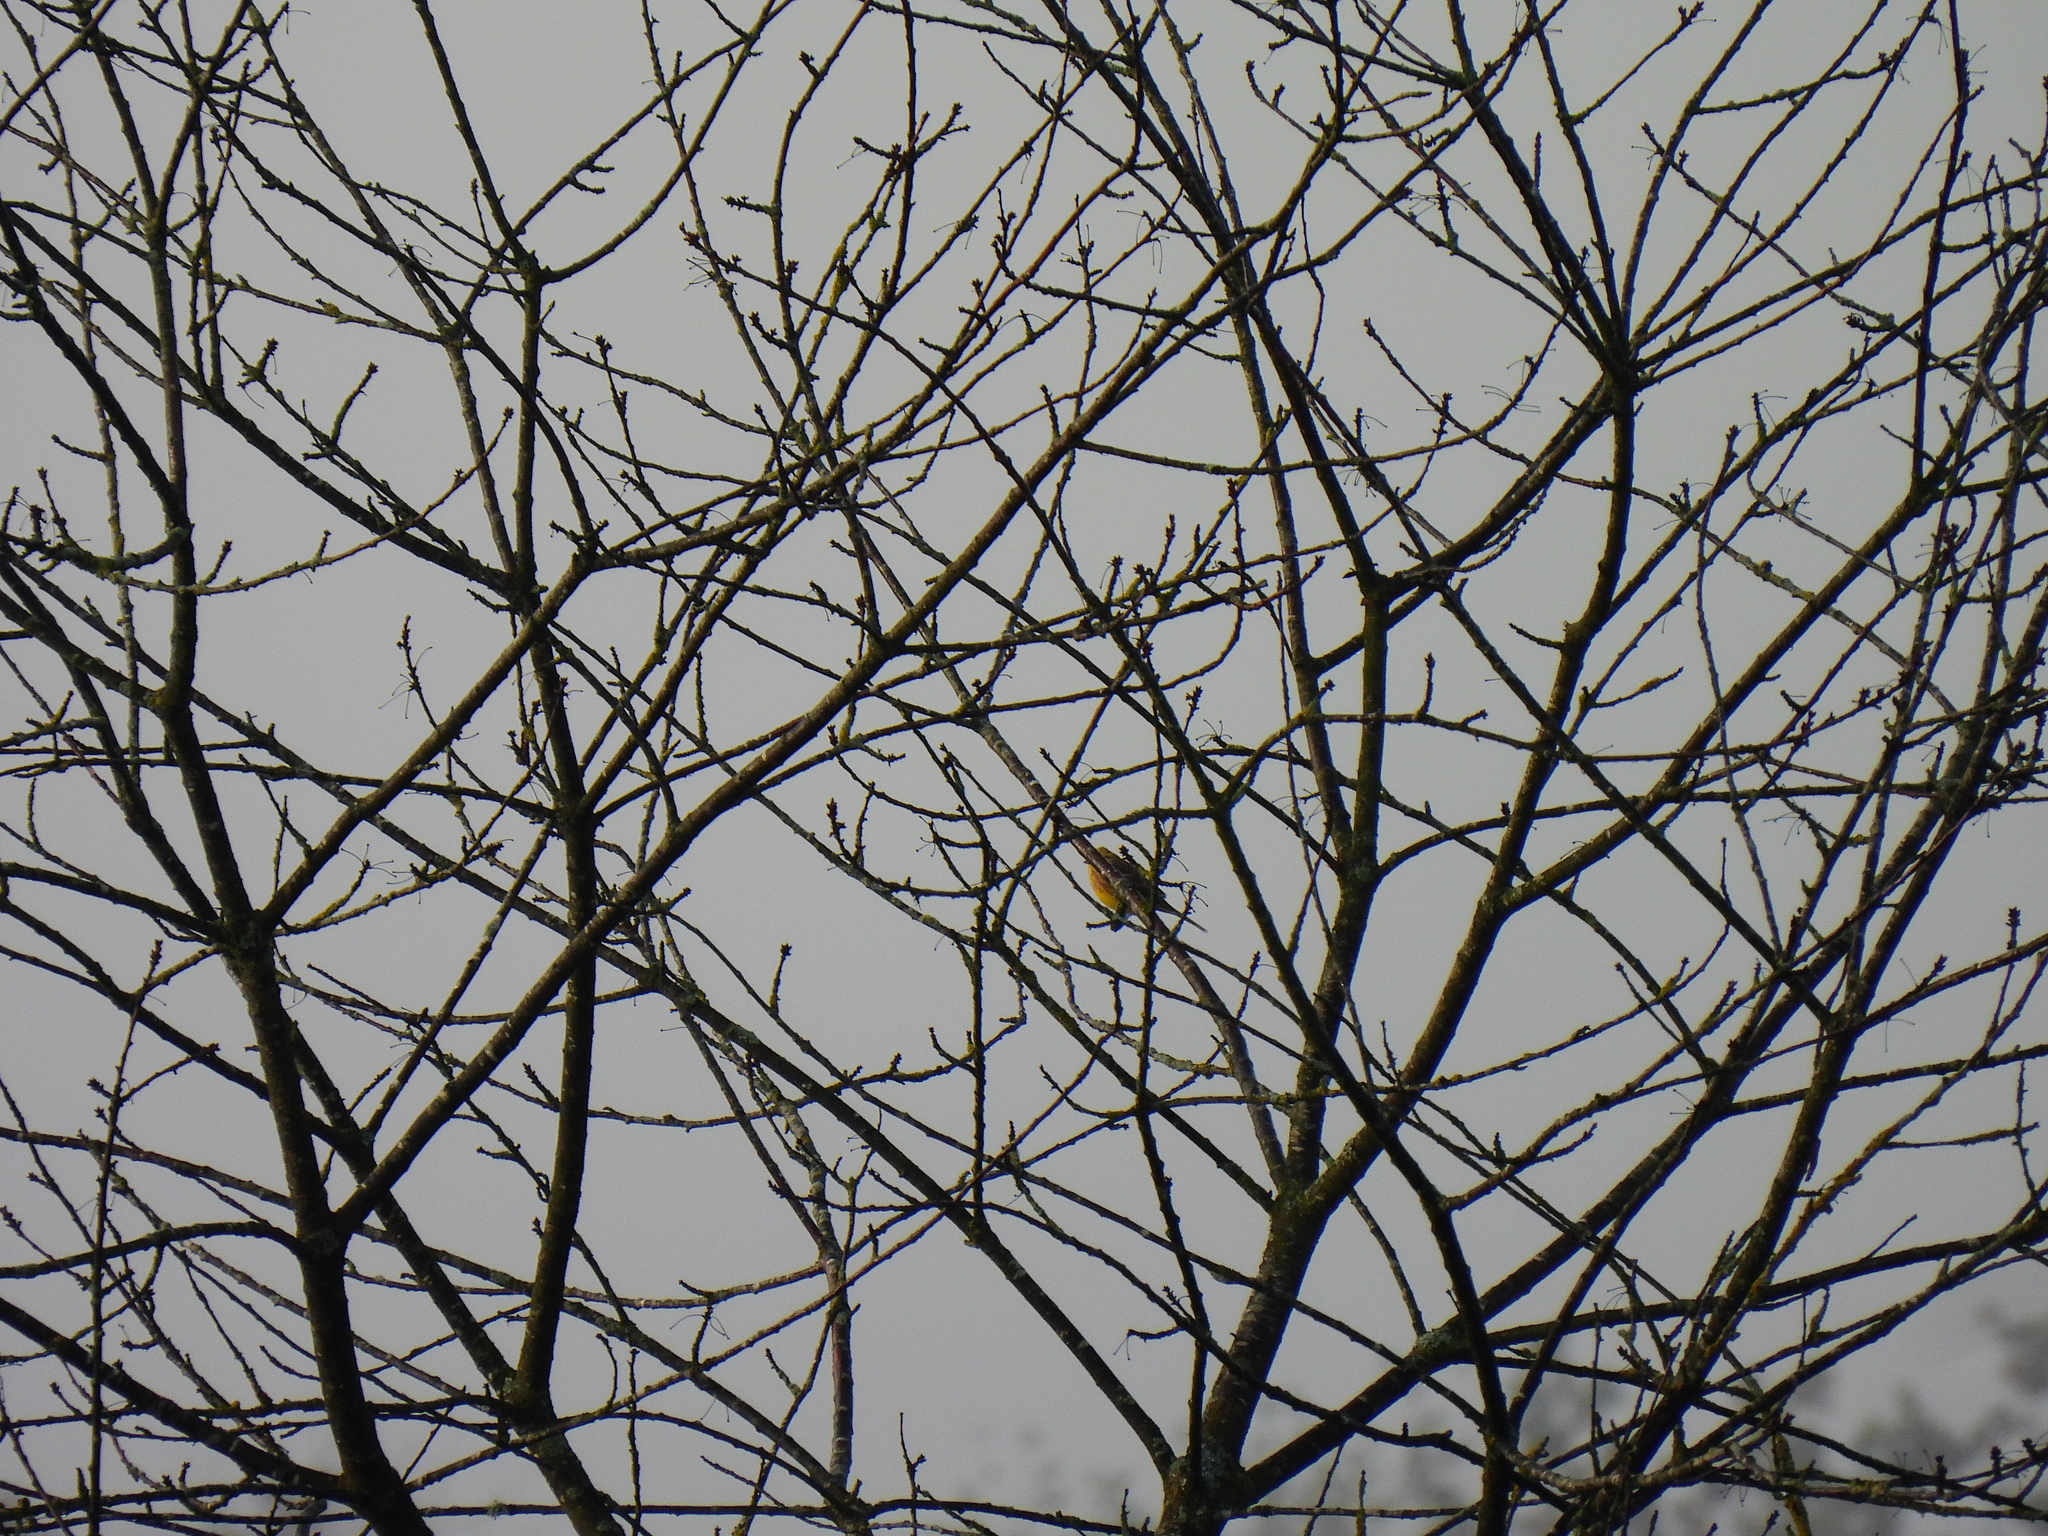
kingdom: Animalia
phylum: Chordata
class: Aves
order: Passeriformes
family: Emberizidae
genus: Emberiza
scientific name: Emberiza citrinella
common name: Yellowhammer
